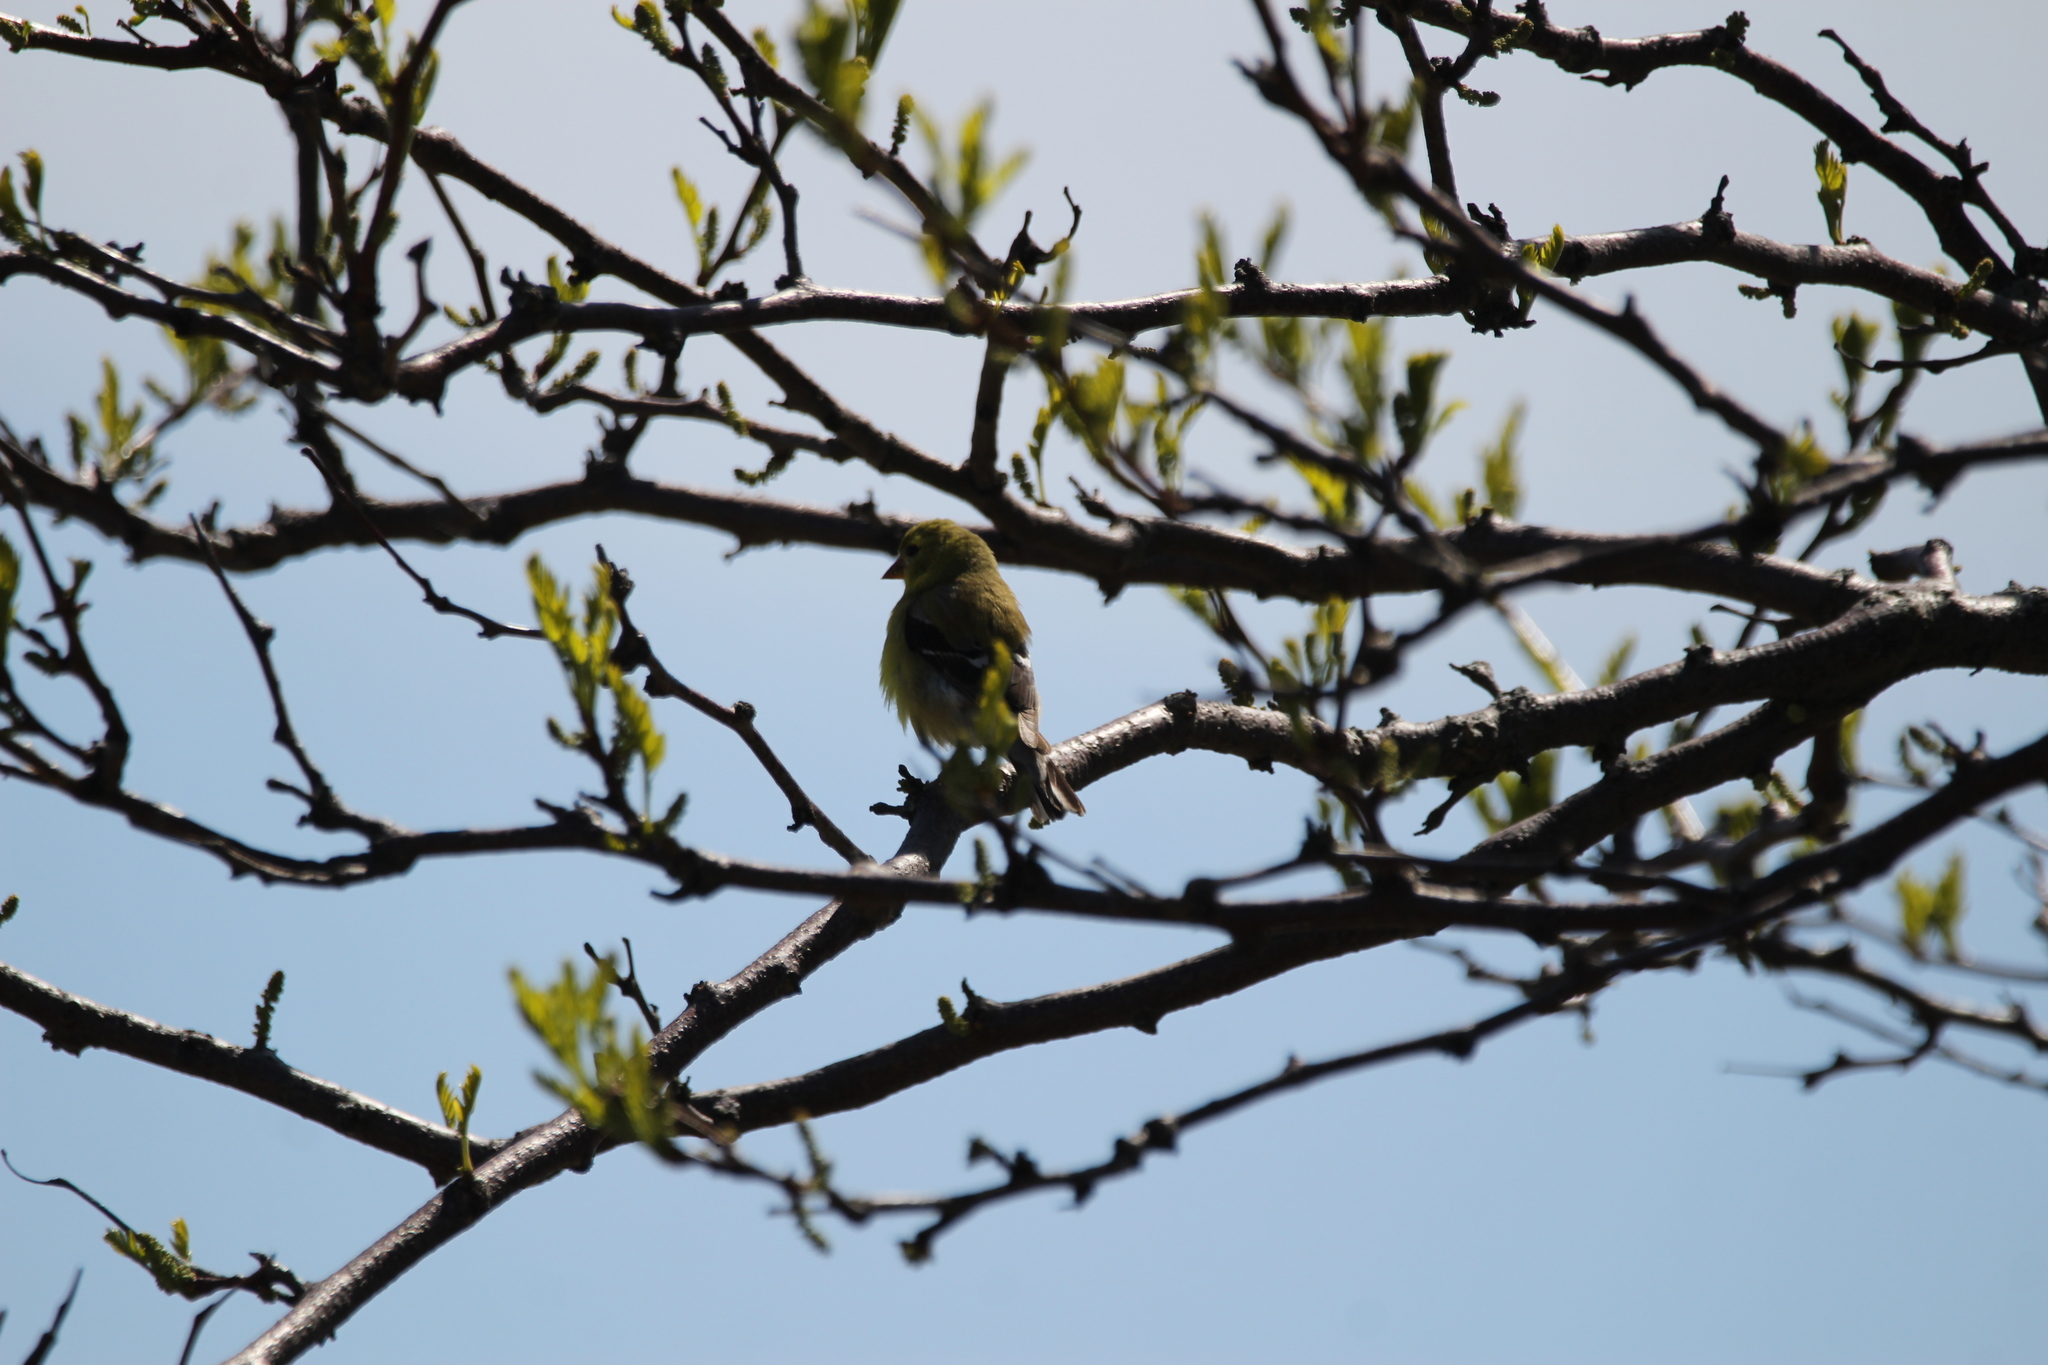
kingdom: Animalia
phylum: Chordata
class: Aves
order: Passeriformes
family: Fringillidae
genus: Spinus
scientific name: Spinus tristis
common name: American goldfinch
